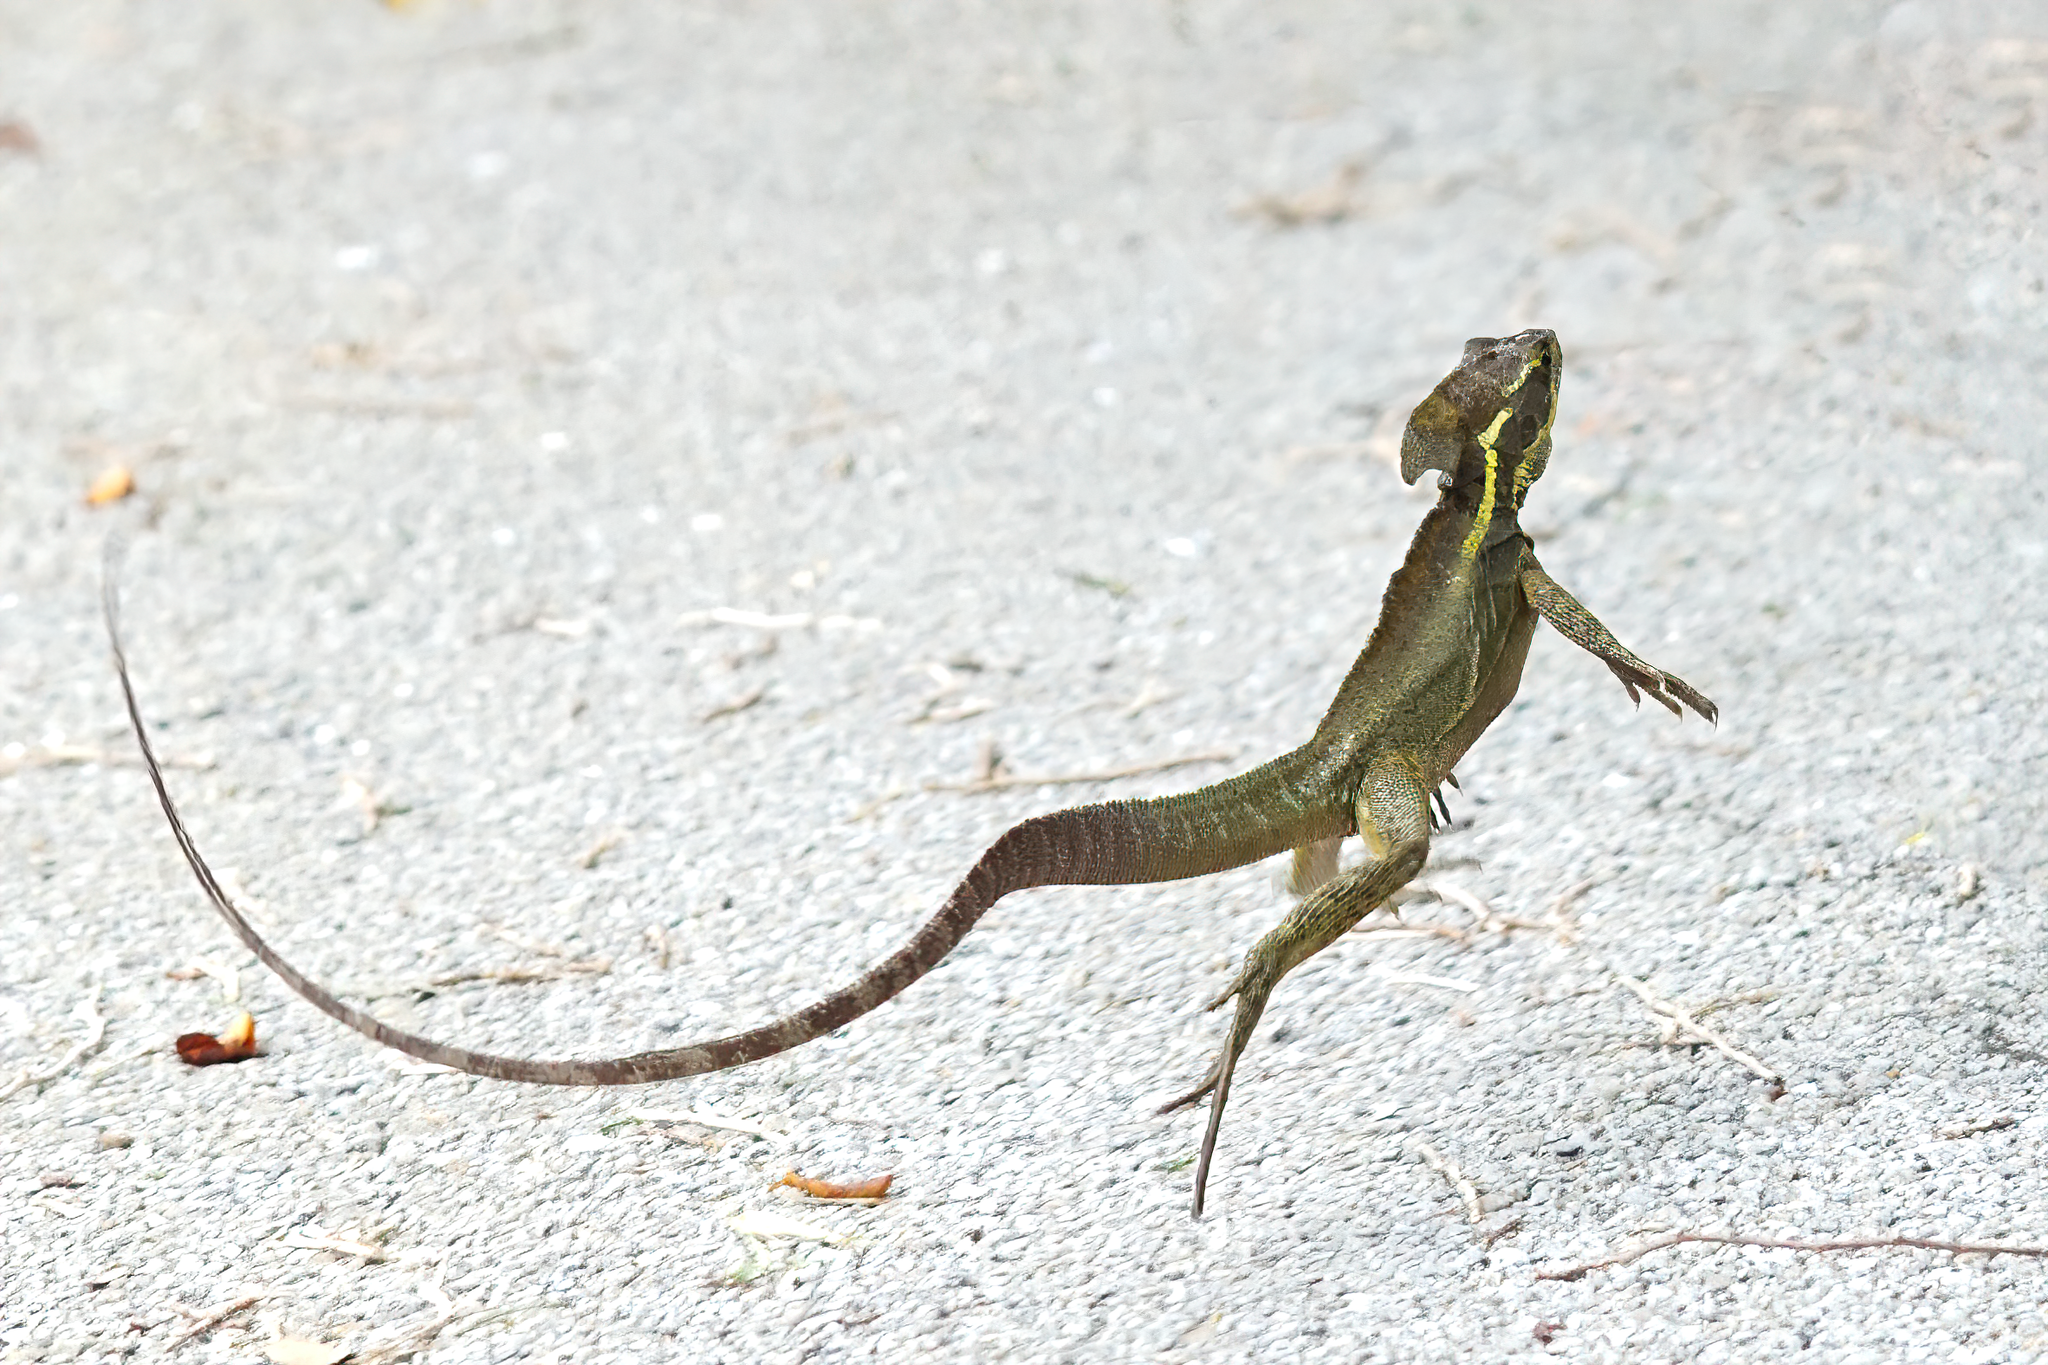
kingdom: Animalia
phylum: Chordata
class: Squamata
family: Corytophanidae
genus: Basiliscus
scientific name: Basiliscus vittatus
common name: Brown basilisk
